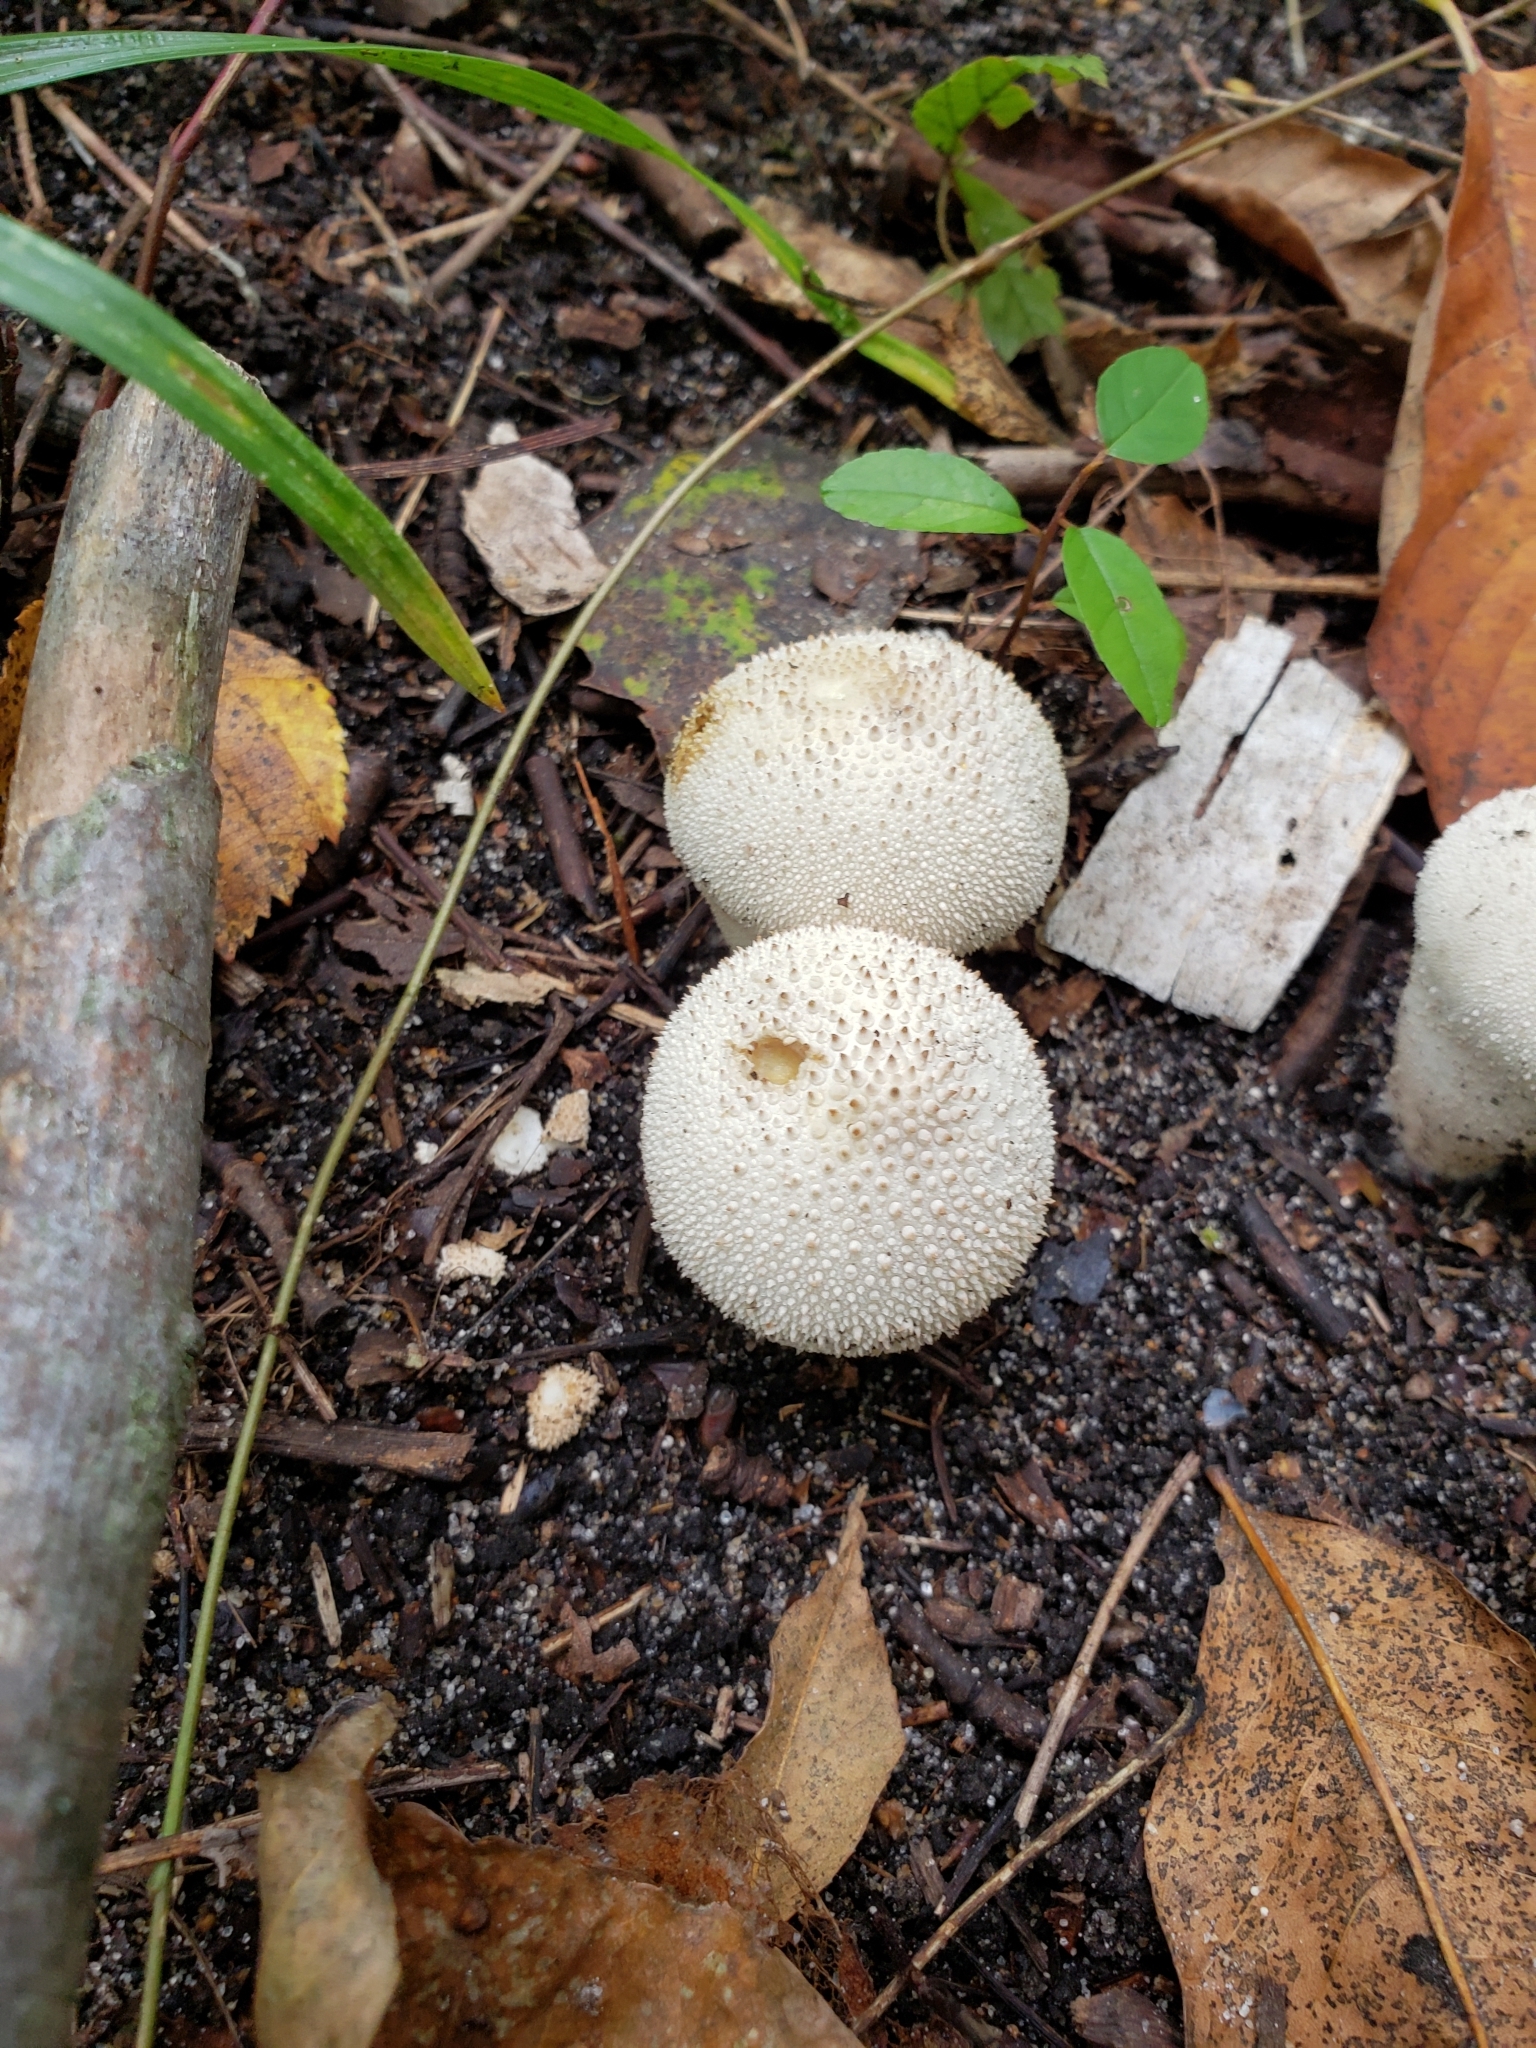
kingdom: Fungi
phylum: Basidiomycota
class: Agaricomycetes
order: Agaricales
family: Lycoperdaceae
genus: Lycoperdon
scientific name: Lycoperdon perlatum
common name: Common puffball
